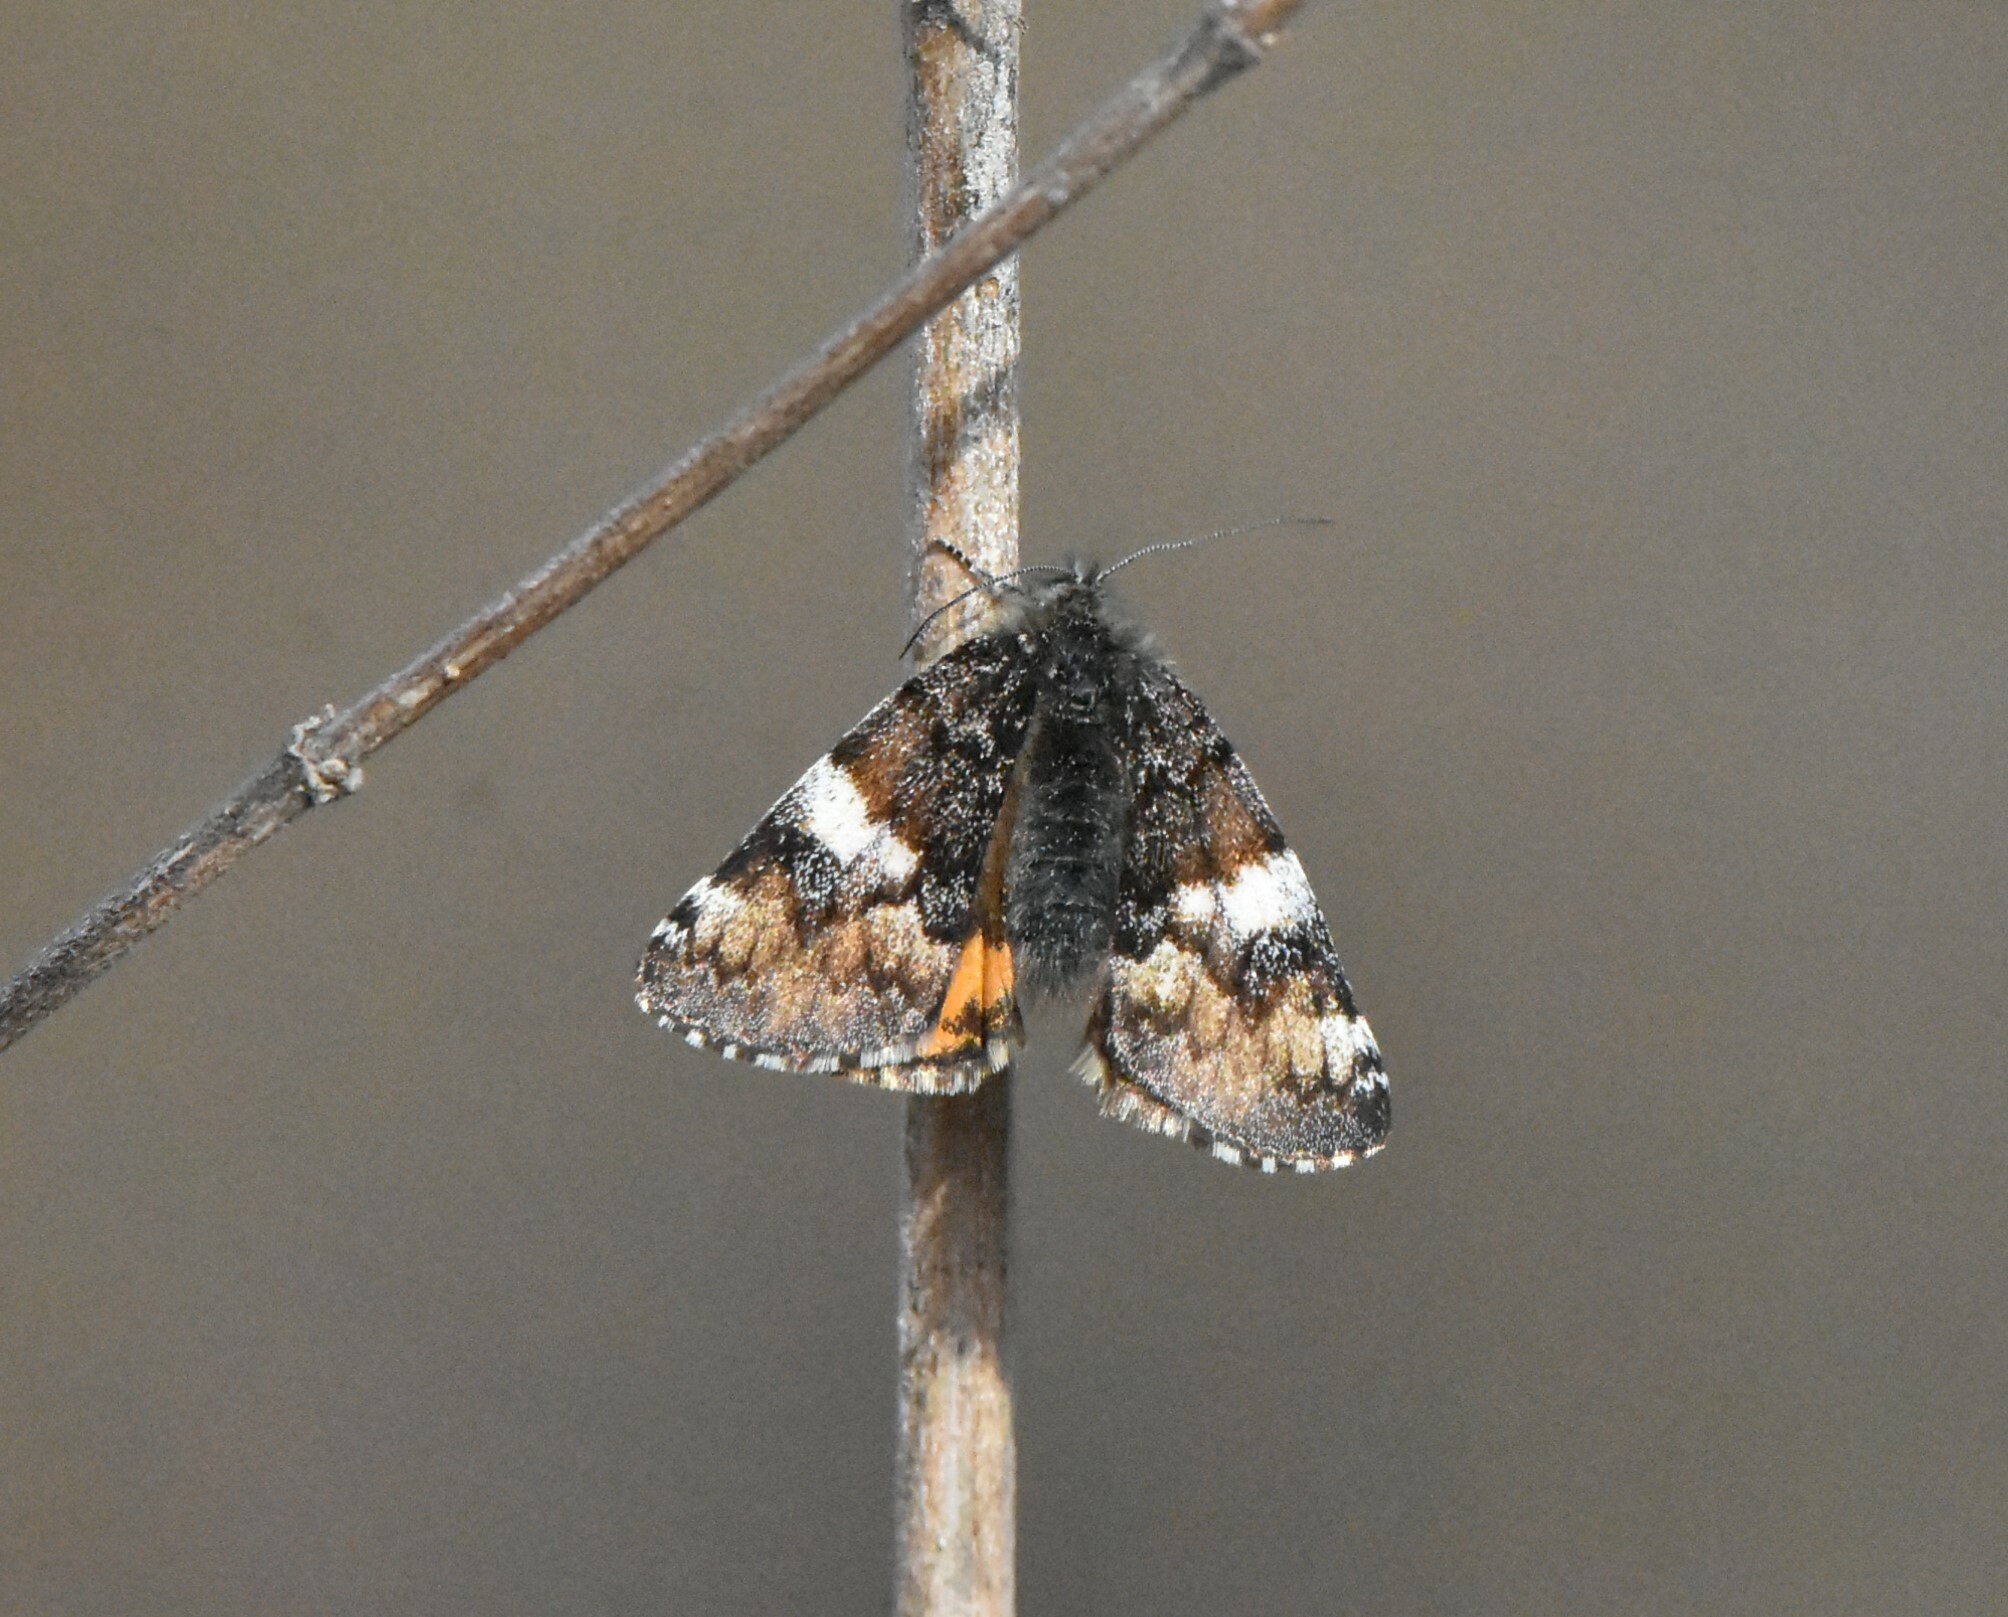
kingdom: Animalia
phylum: Arthropoda
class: Insecta
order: Lepidoptera
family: Geometridae
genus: Archiearis
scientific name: Archiearis parthenias
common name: Orange underwing
